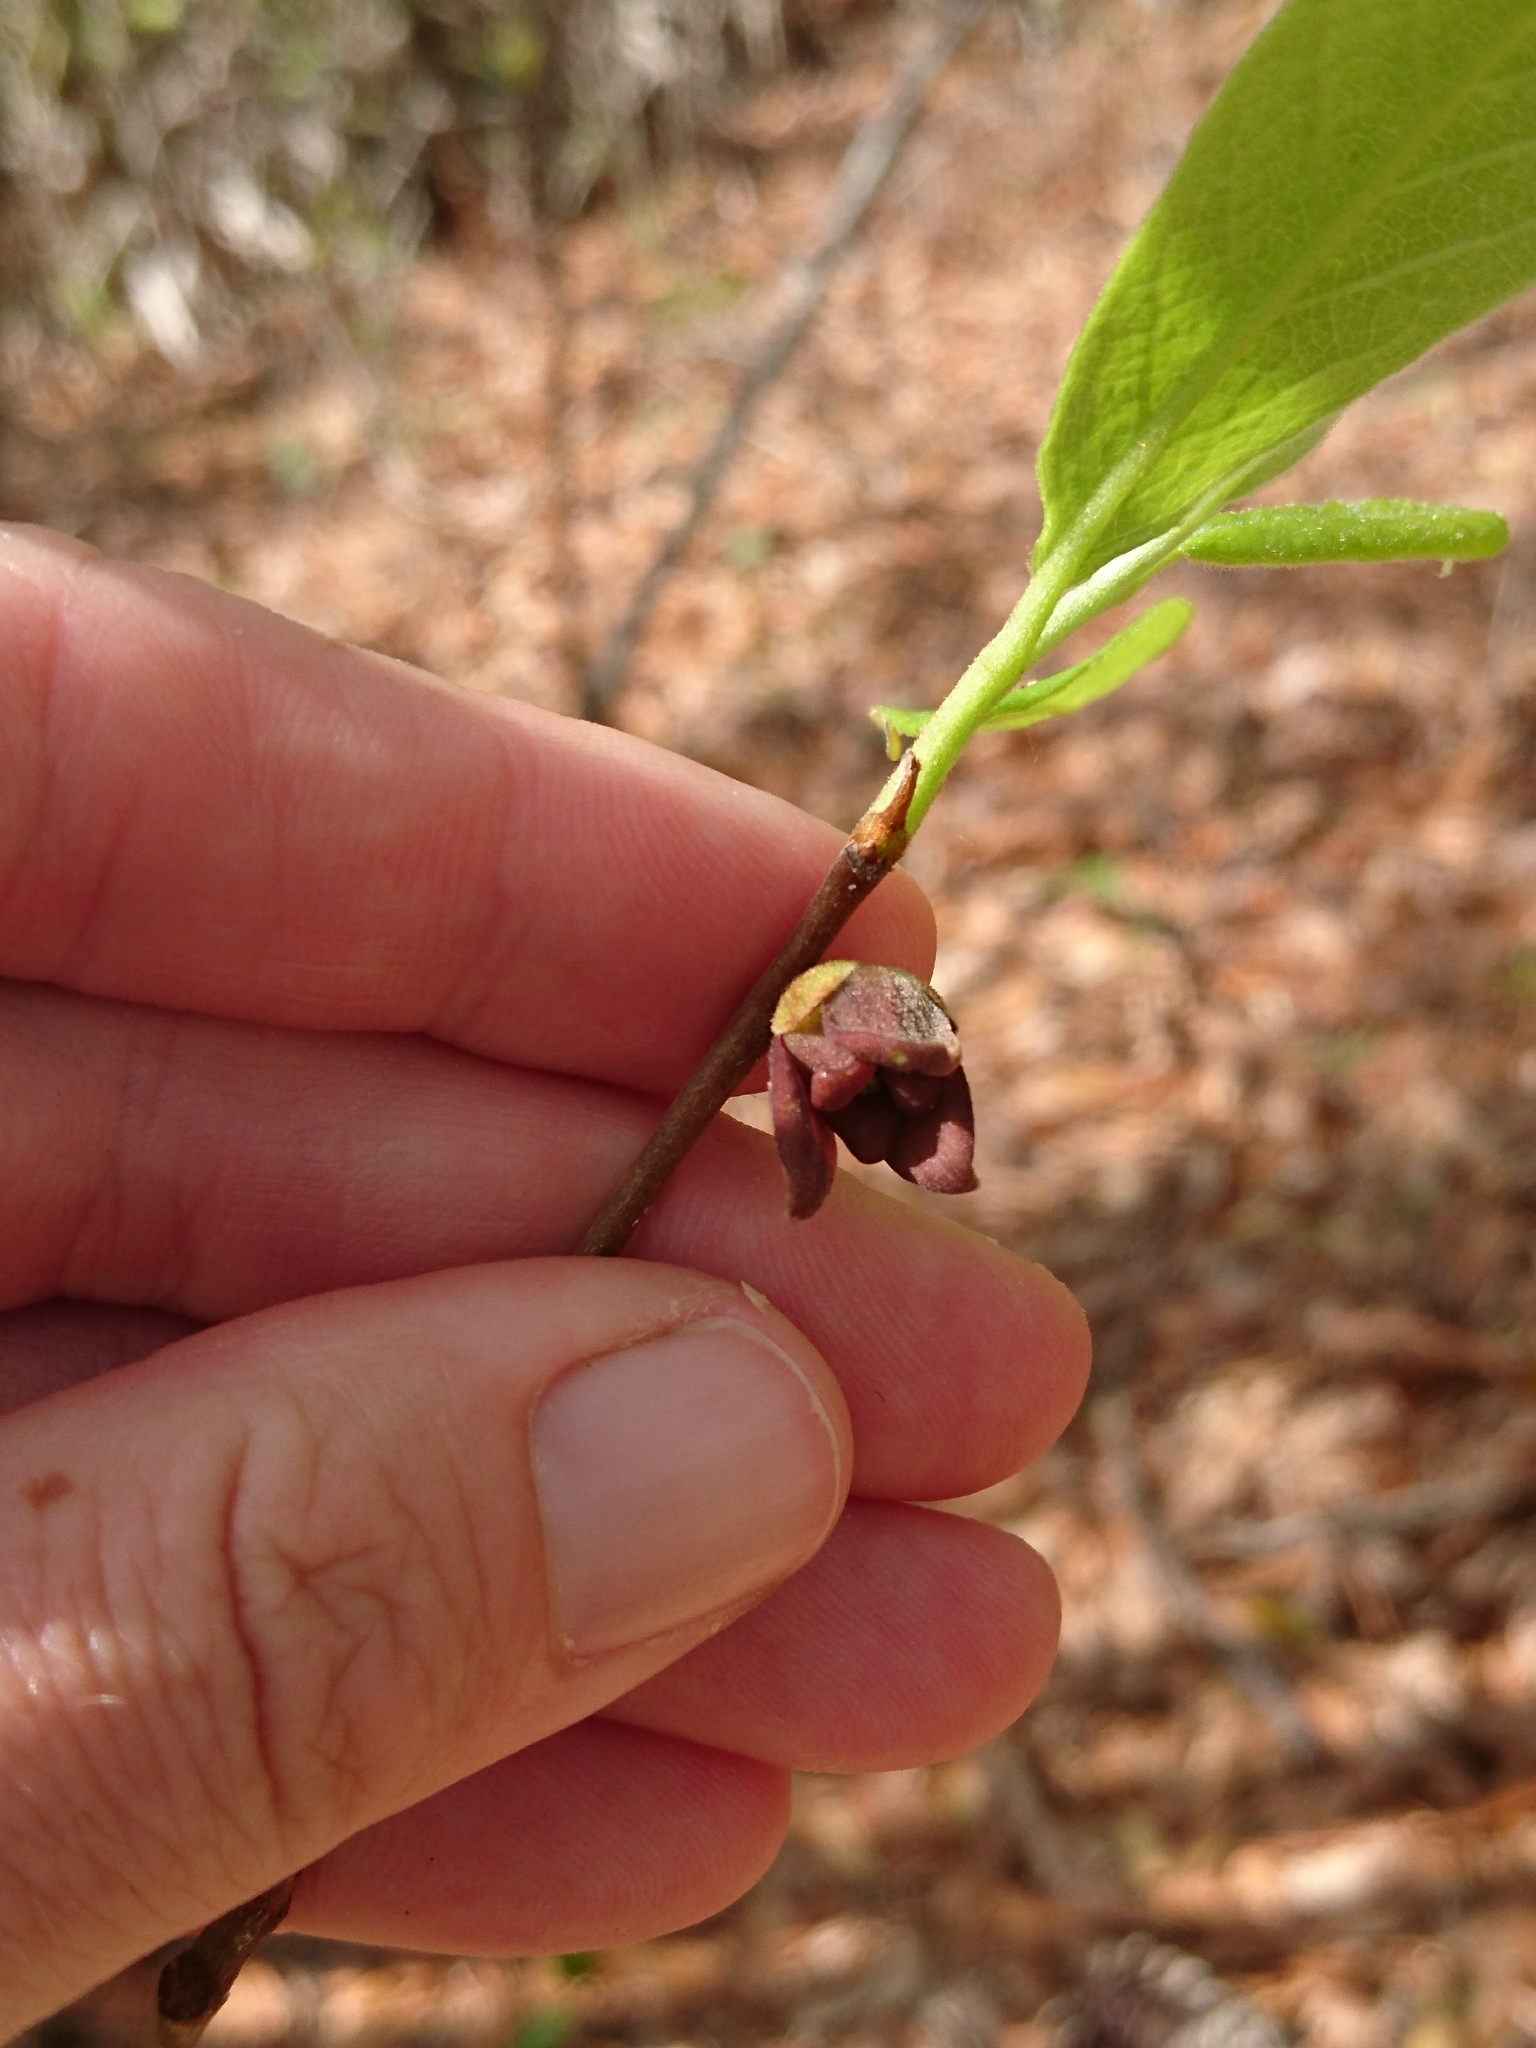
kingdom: Plantae
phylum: Tracheophyta
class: Magnoliopsida
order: Magnoliales
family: Annonaceae
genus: Asimina
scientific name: Asimina parviflora
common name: Dwarf pawpaw
